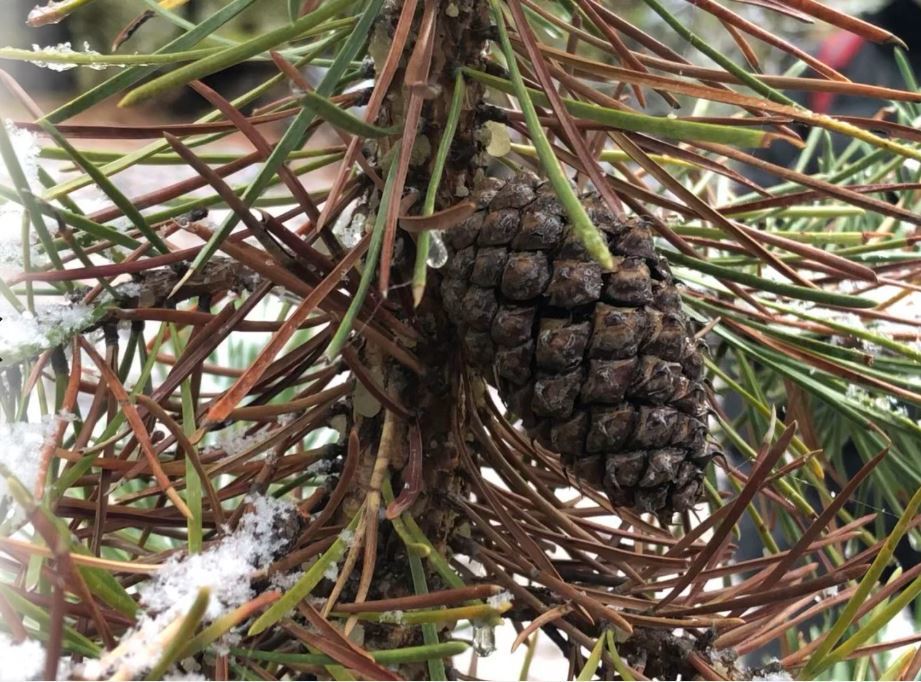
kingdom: Plantae
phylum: Tracheophyta
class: Pinopsida
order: Pinales
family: Pinaceae
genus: Pinus
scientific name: Pinus contorta
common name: Lodgepole pine
